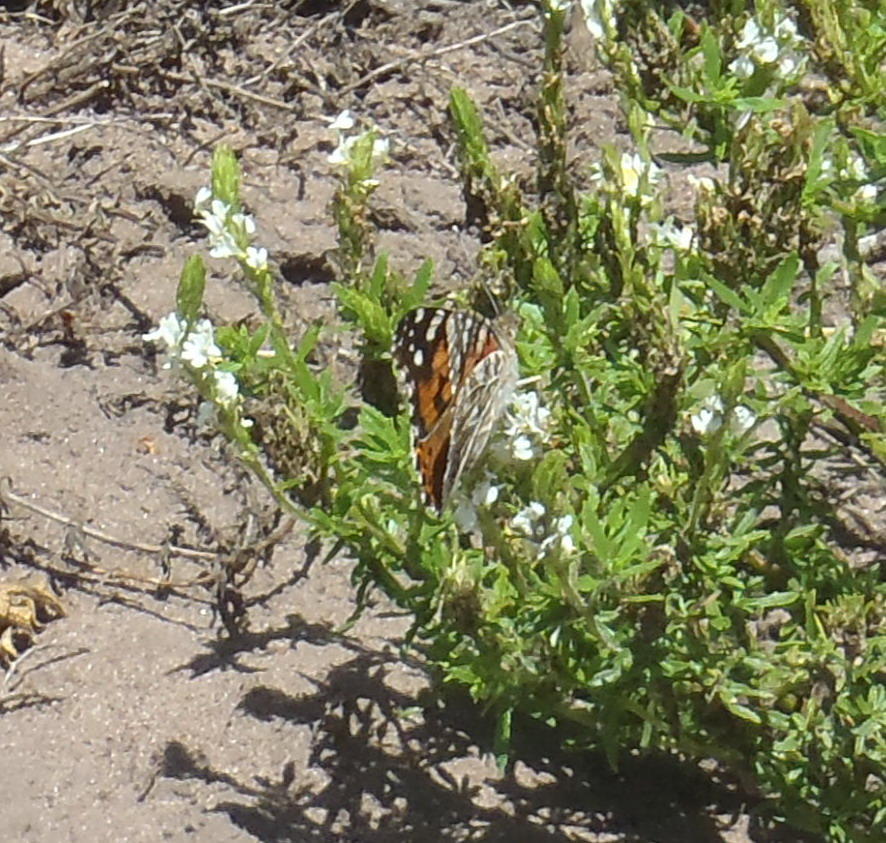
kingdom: Animalia
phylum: Arthropoda
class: Insecta
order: Lepidoptera
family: Nymphalidae
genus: Vanessa
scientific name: Vanessa cardui
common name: Painted lady
